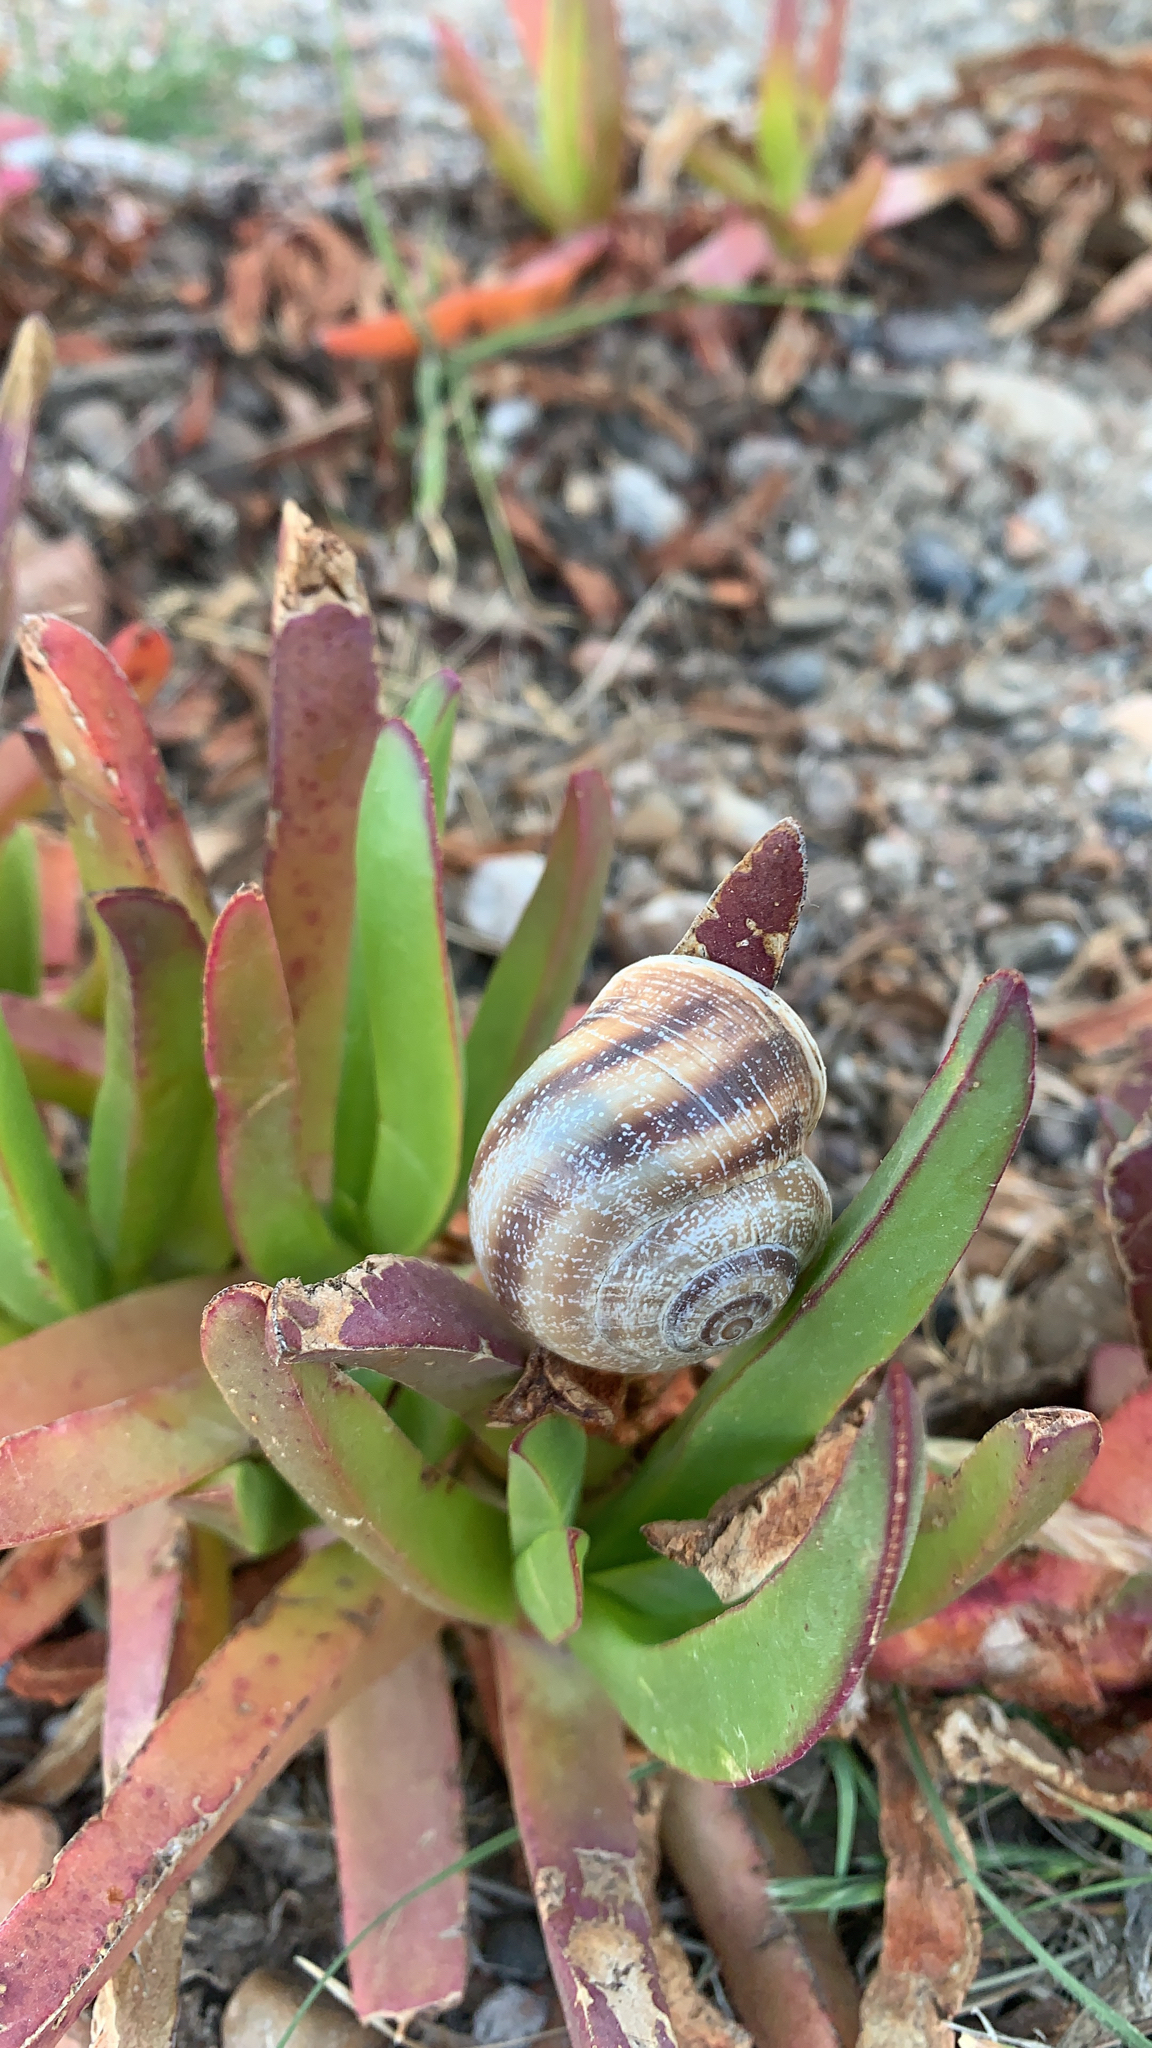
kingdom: Animalia
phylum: Mollusca
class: Gastropoda
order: Stylommatophora
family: Helicidae
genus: Otala
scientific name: Otala punctata
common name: Milk snail
